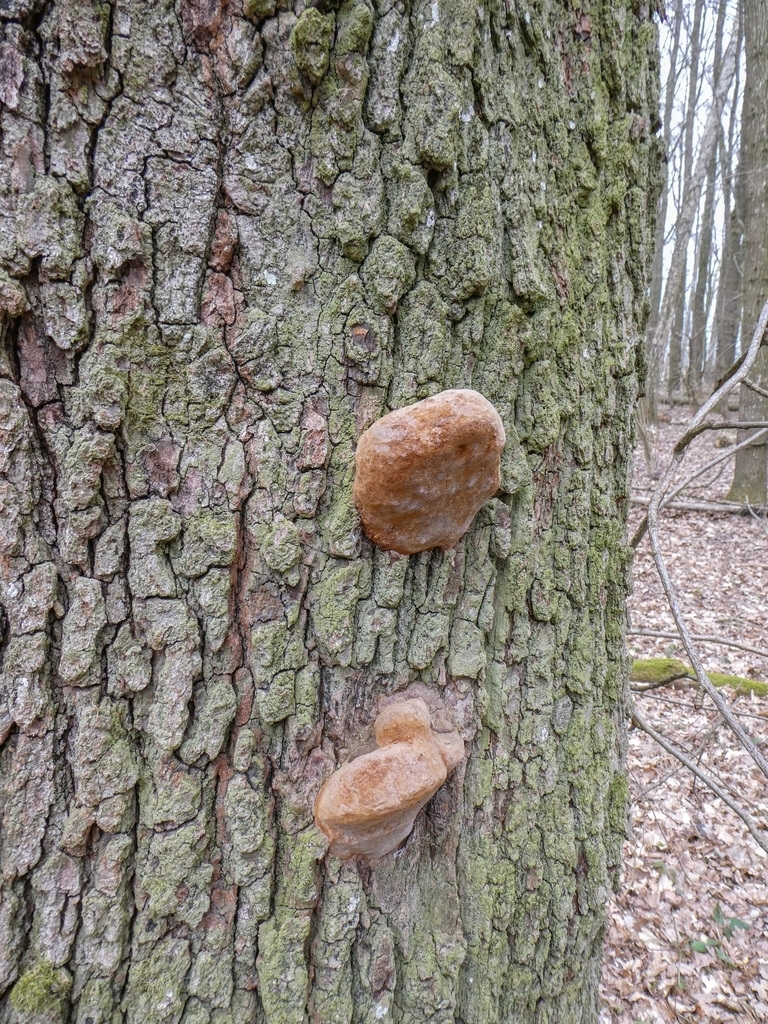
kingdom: Fungi
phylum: Basidiomycota
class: Agaricomycetes
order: Hymenochaetales
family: Hymenochaetaceae
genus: Fomitiporia
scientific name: Fomitiporia robusta
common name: Robust bracket
